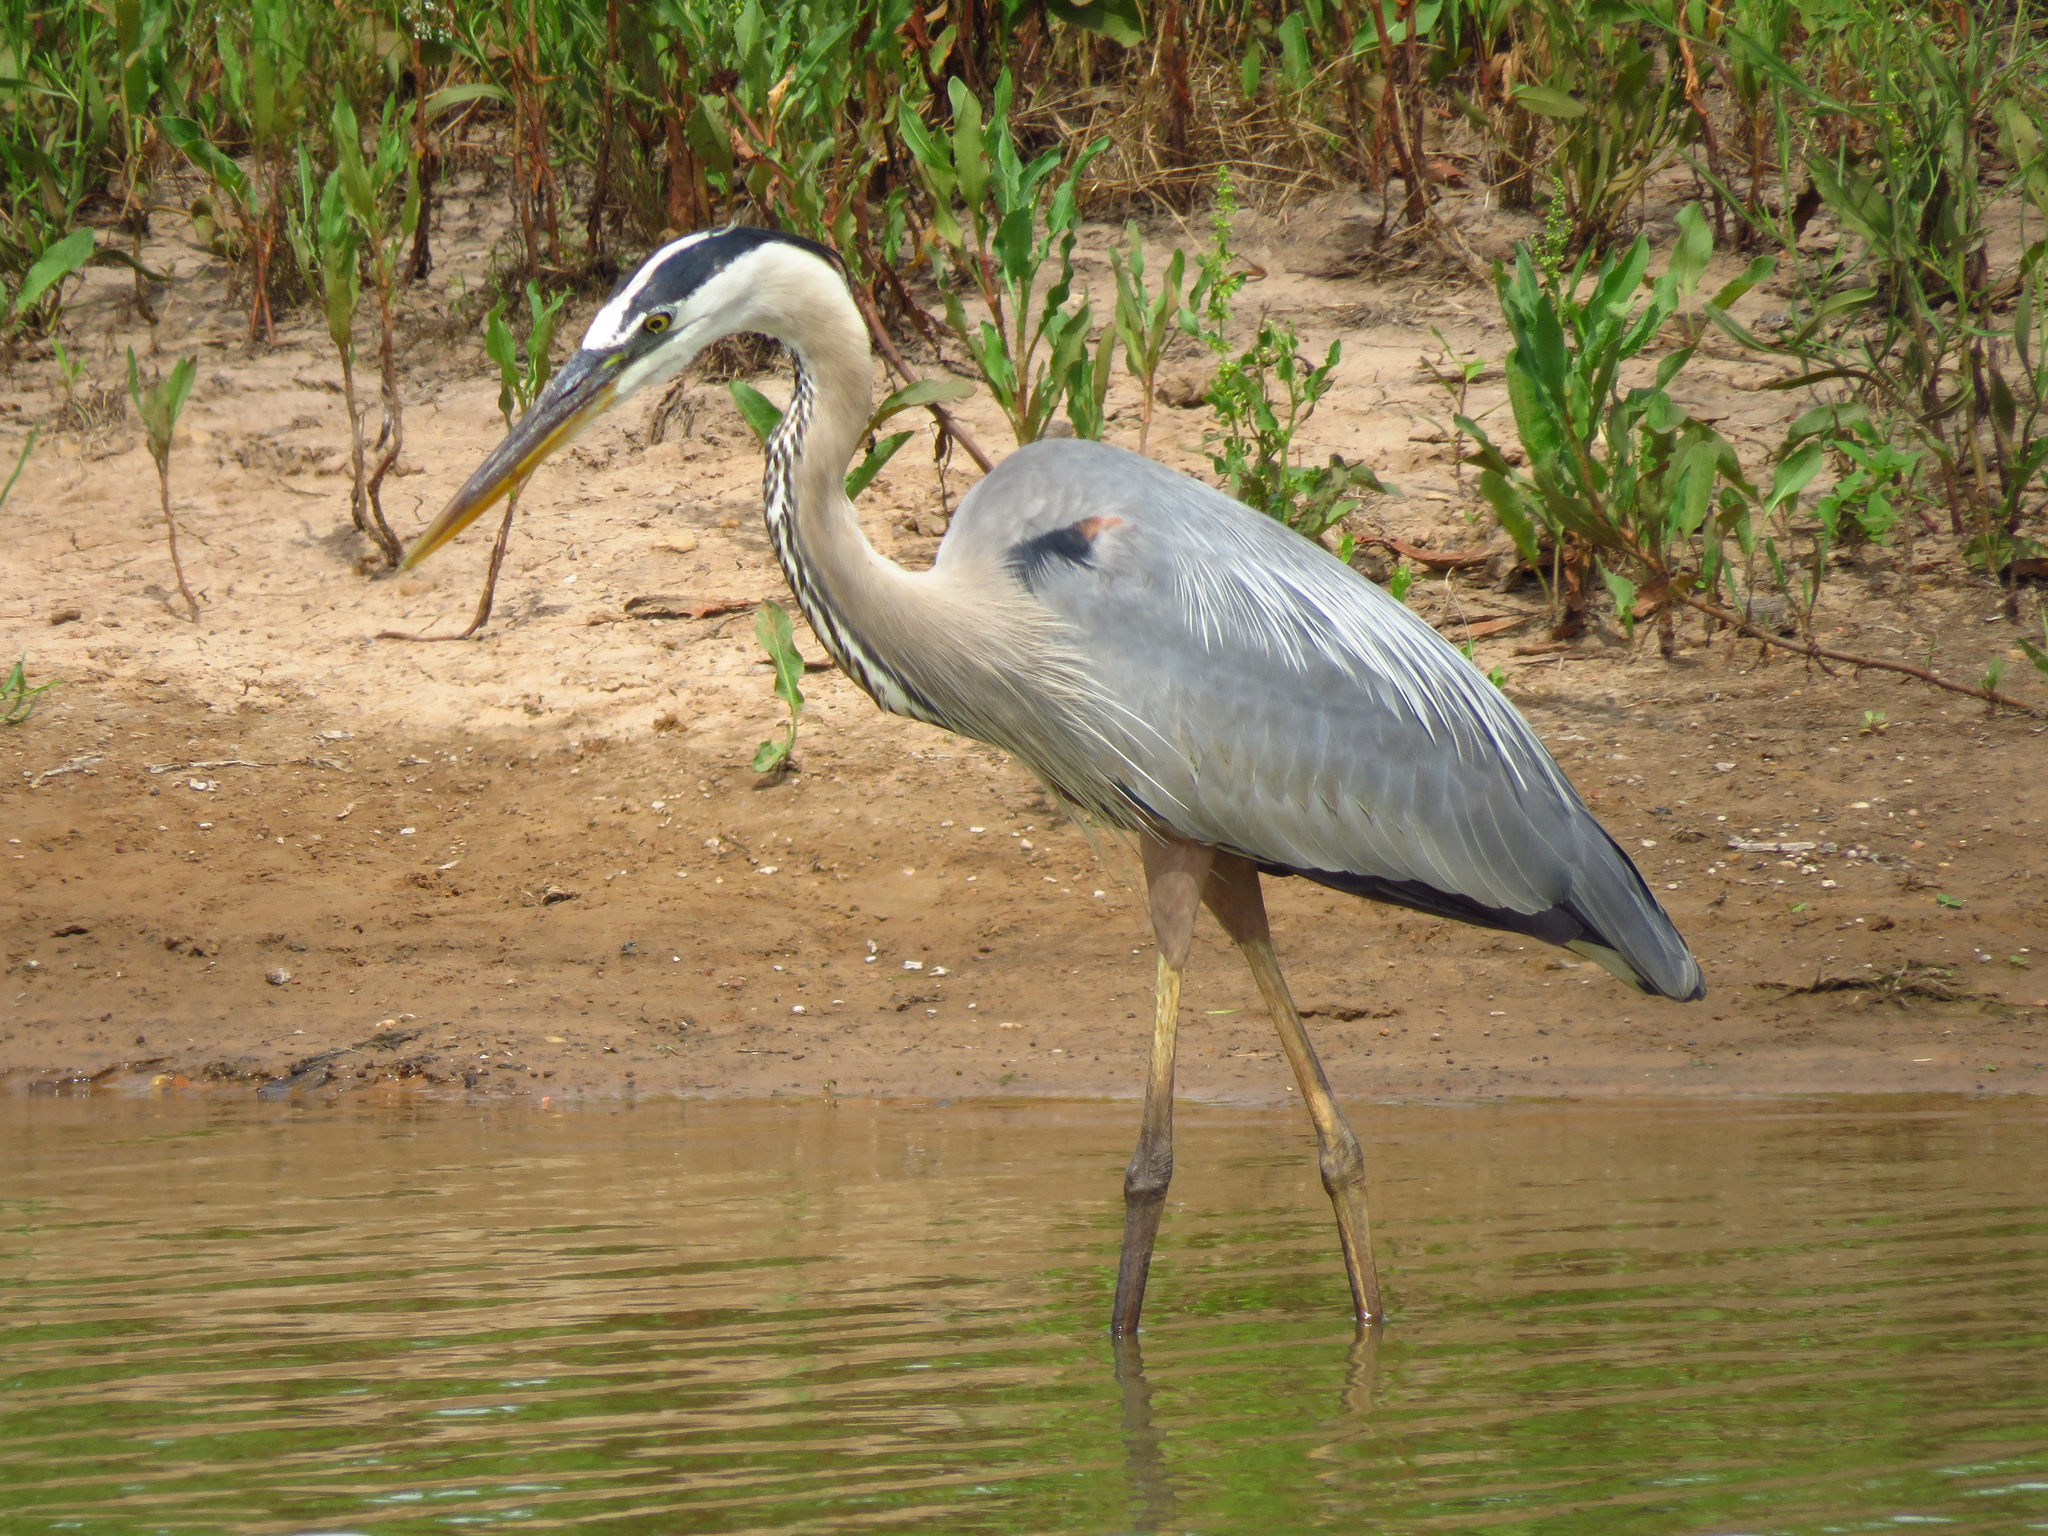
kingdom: Animalia
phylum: Chordata
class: Aves
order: Pelecaniformes
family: Ardeidae
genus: Ardea
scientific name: Ardea herodias
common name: Great blue heron
